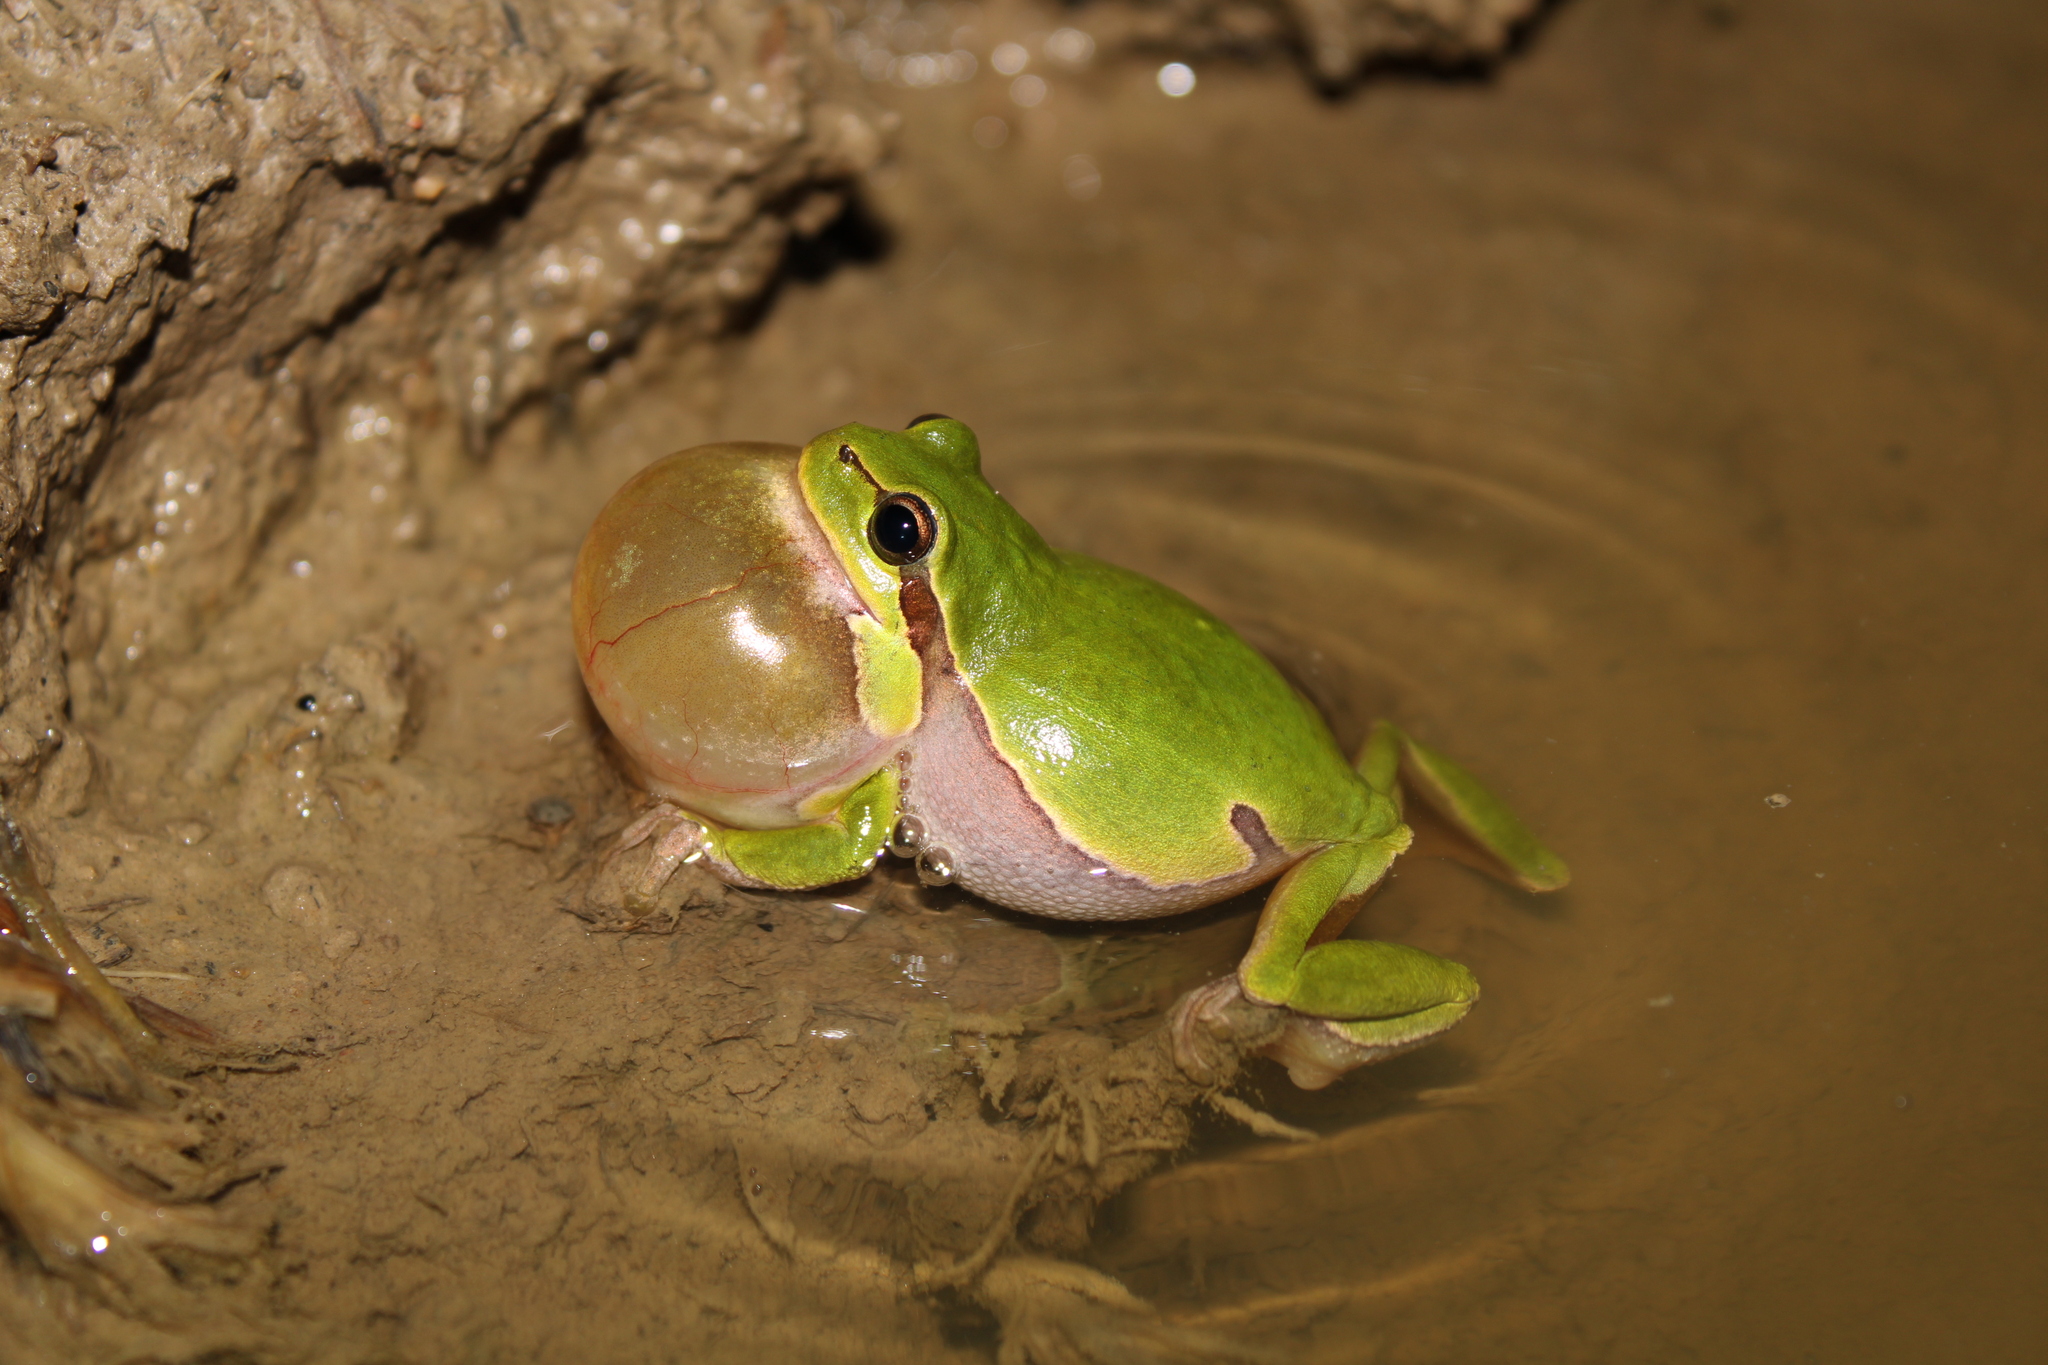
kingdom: Animalia
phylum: Chordata
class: Amphibia
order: Anura
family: Hylidae
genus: Hyla
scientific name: Hyla arborea
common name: Common tree frog
